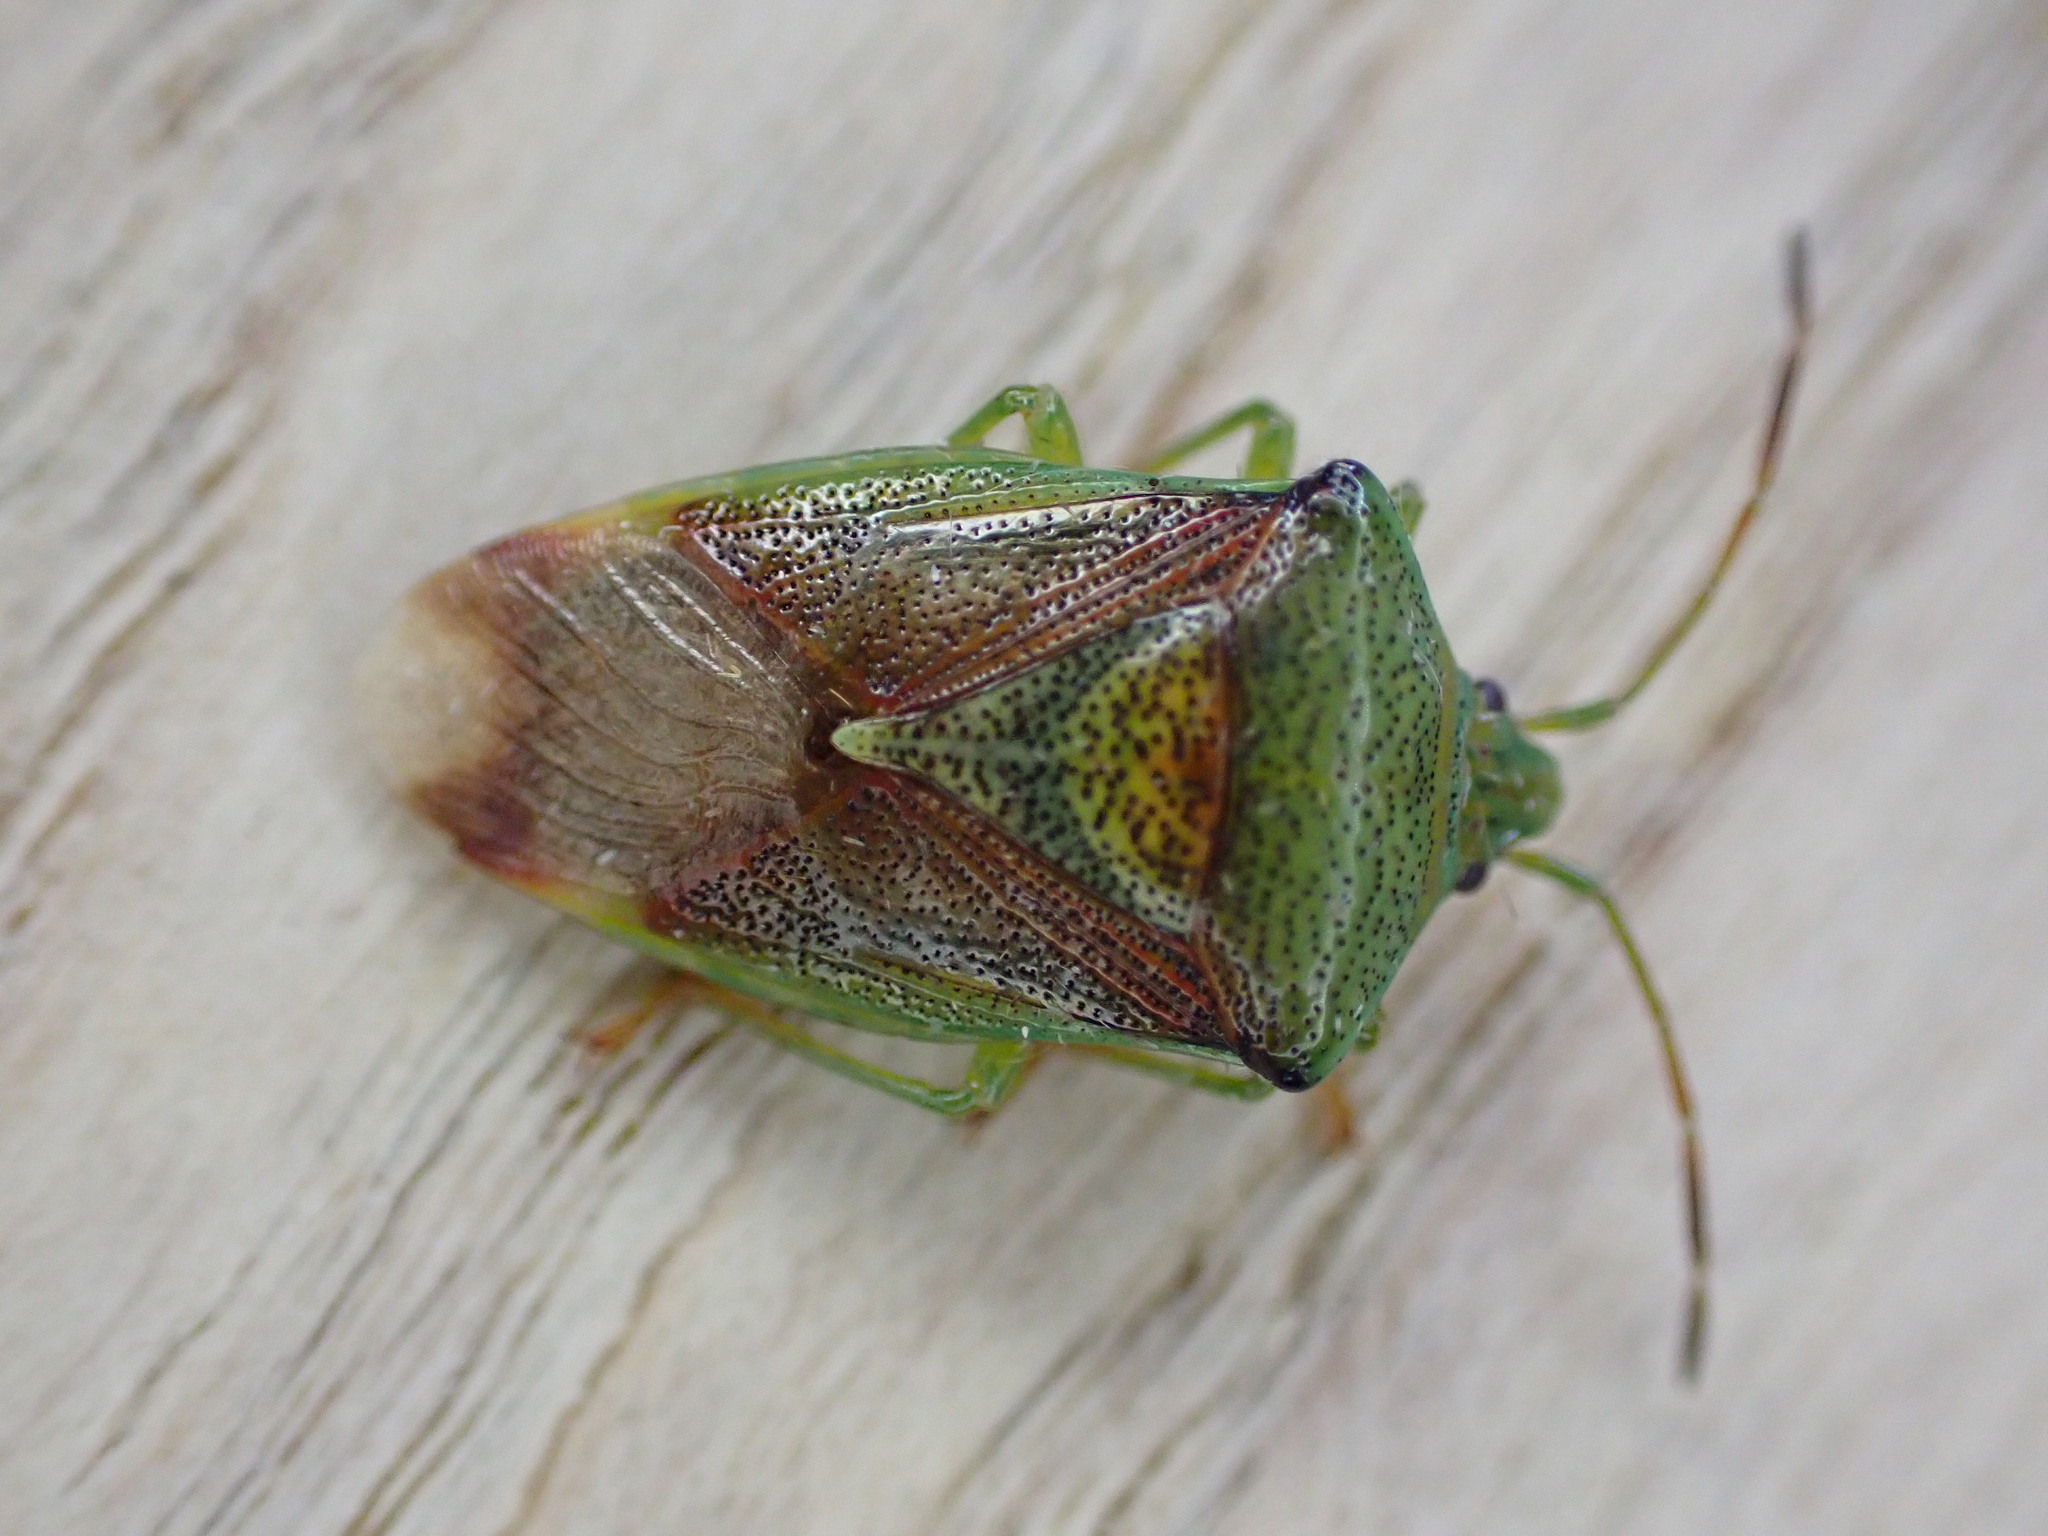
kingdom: Animalia
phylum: Arthropoda
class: Insecta
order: Hemiptera
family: Acanthosomatidae
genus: Elasmostethus
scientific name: Elasmostethus interstinctus
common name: Birch shieldbug
